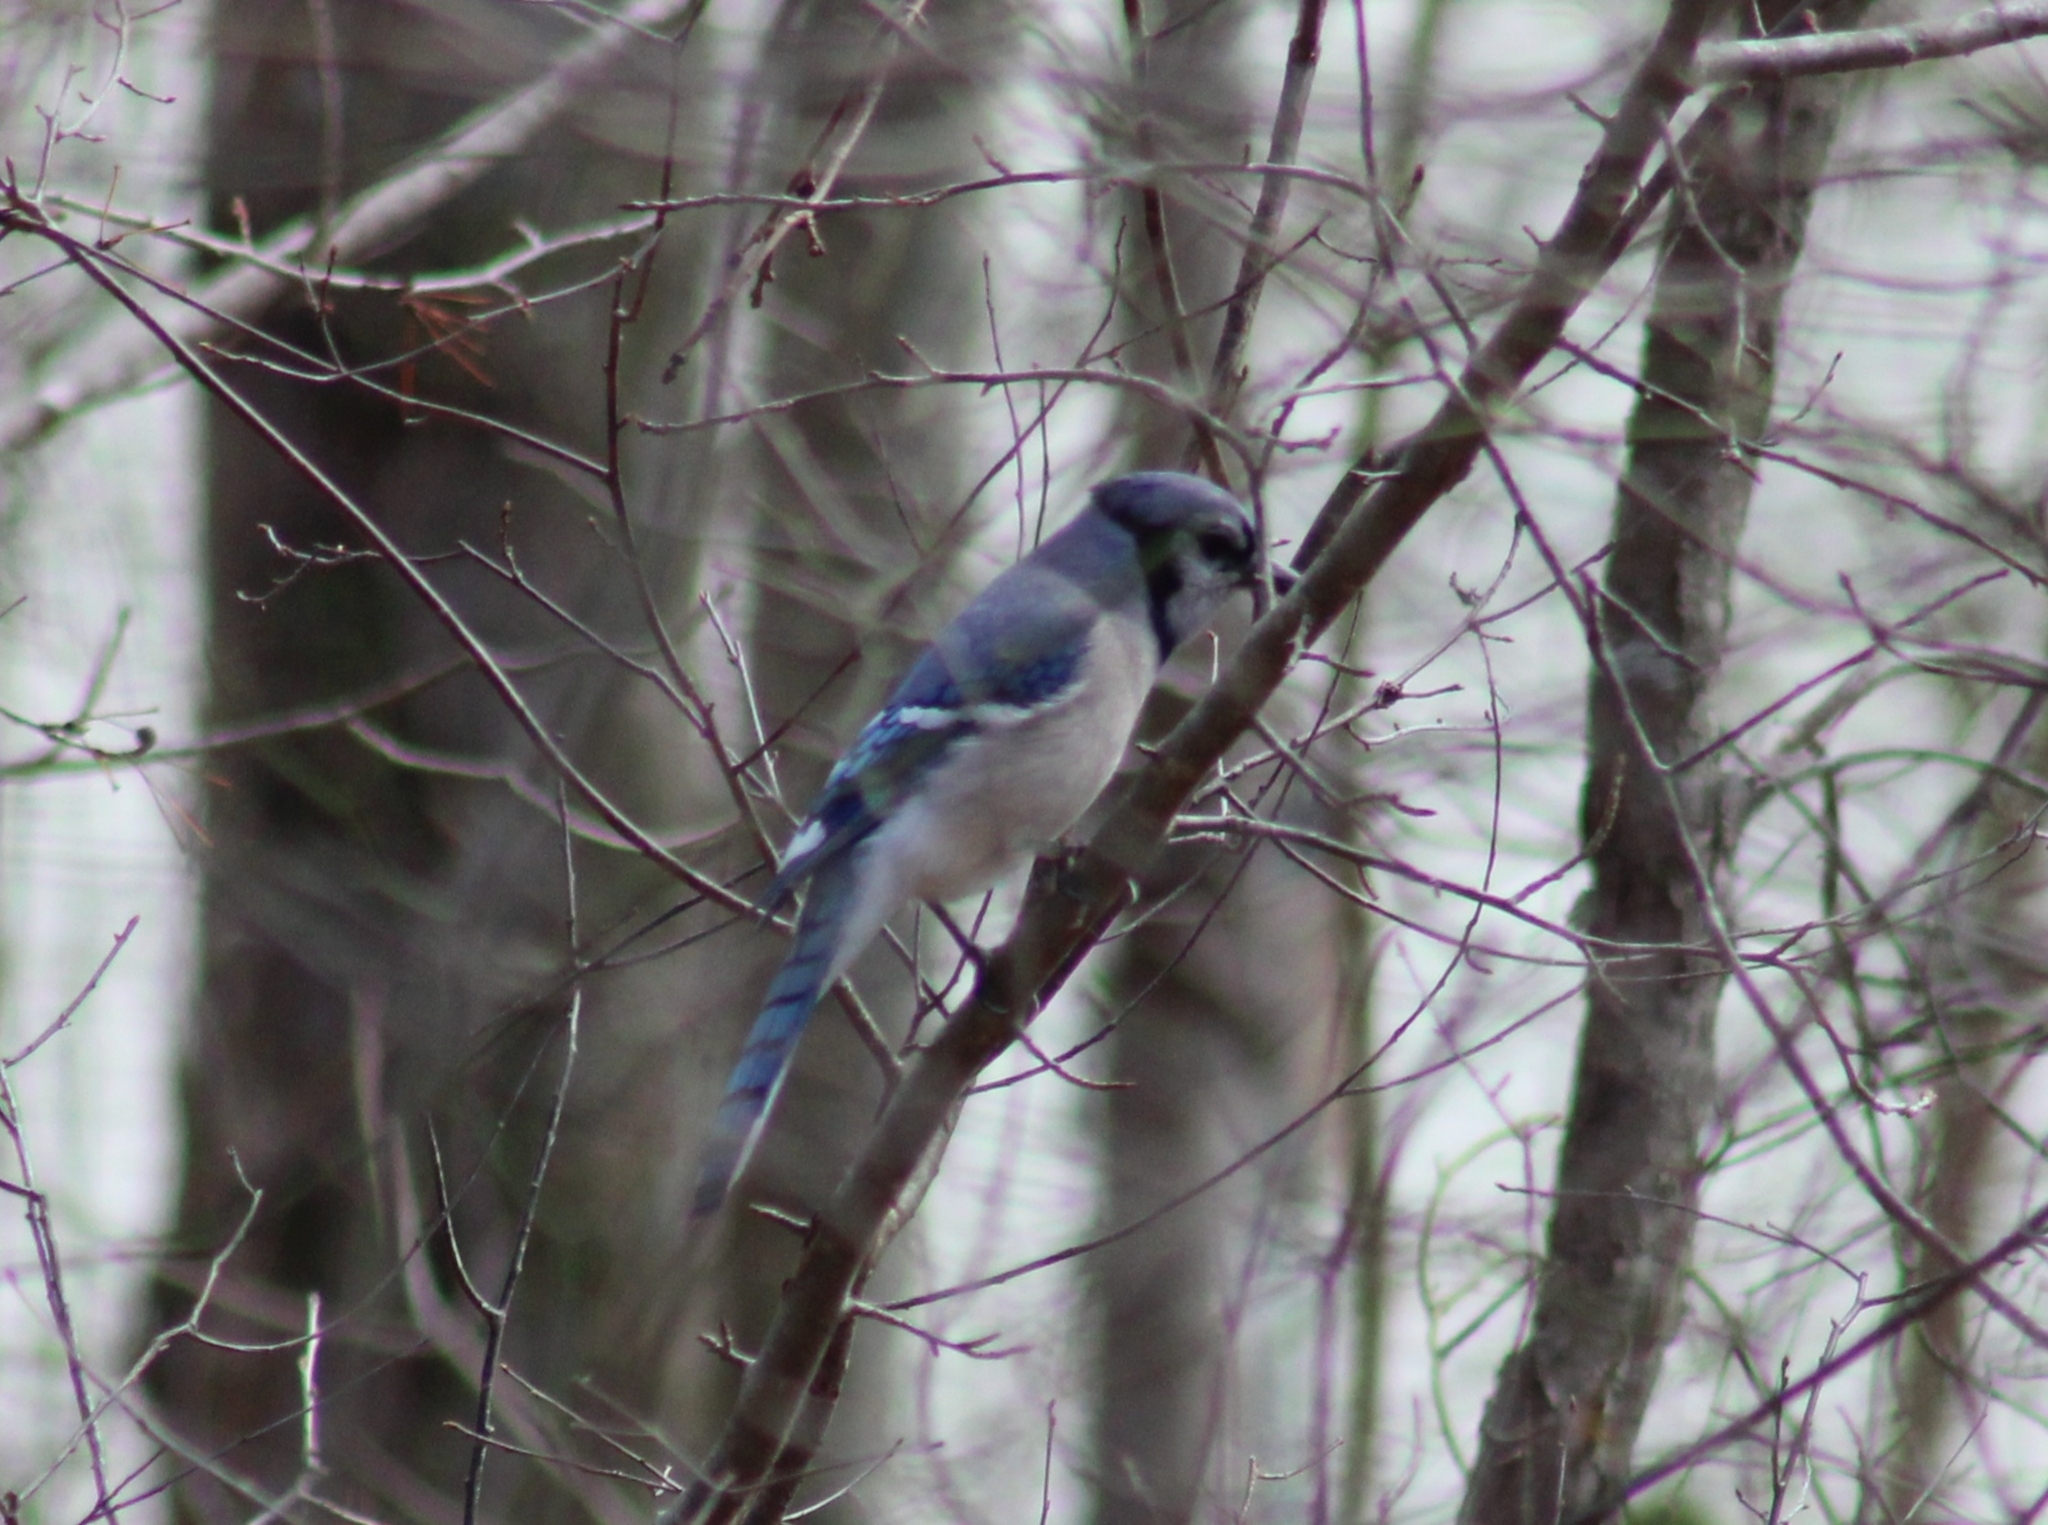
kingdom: Animalia
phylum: Chordata
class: Aves
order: Passeriformes
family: Corvidae
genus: Cyanocitta
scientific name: Cyanocitta cristata
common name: Blue jay
